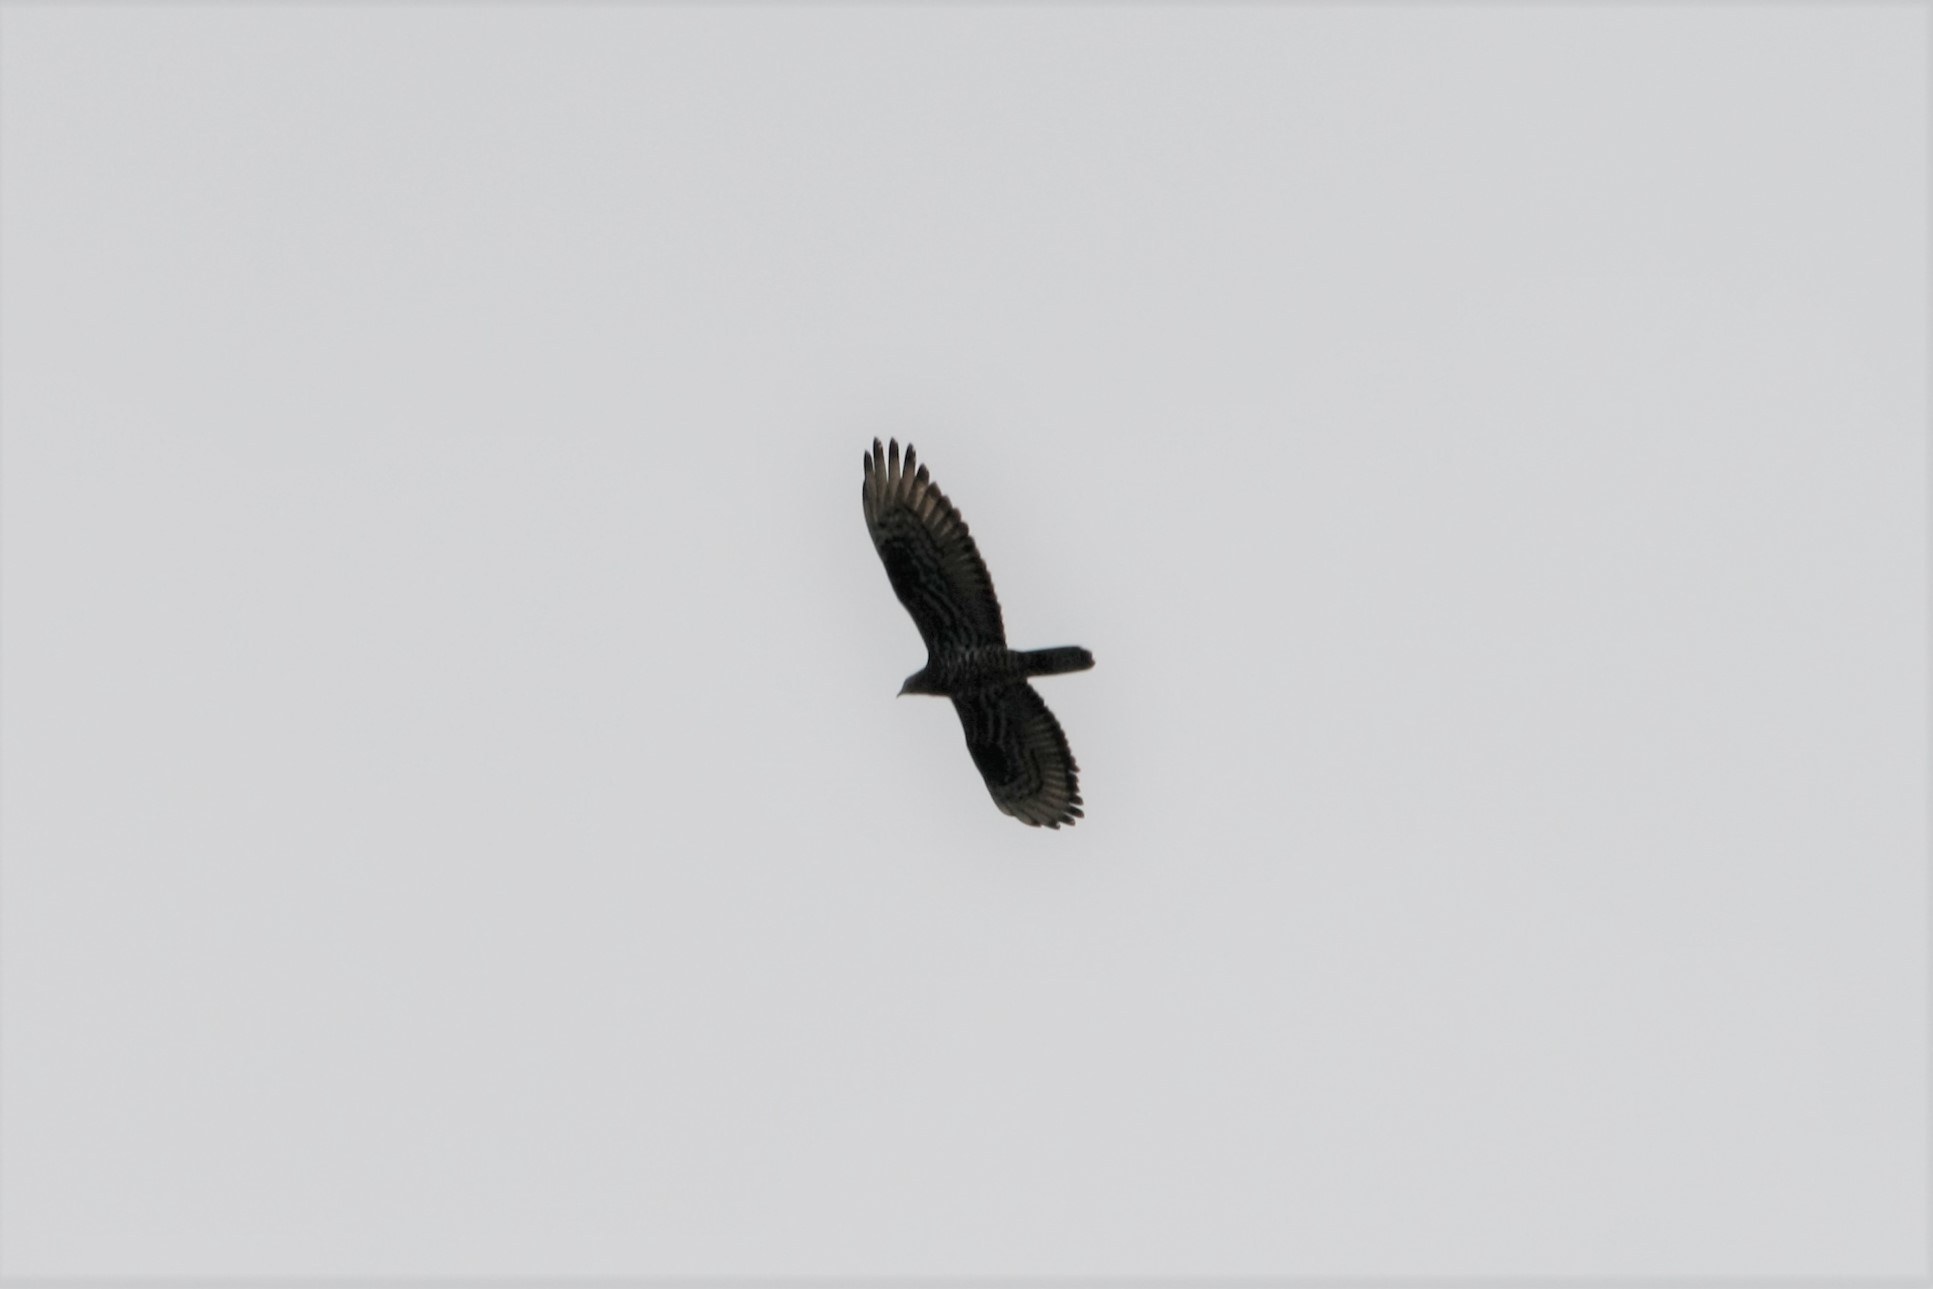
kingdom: Animalia
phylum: Chordata
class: Aves
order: Accipitriformes
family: Accipitridae
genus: Pernis
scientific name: Pernis apivorus
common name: European honey buzzard
